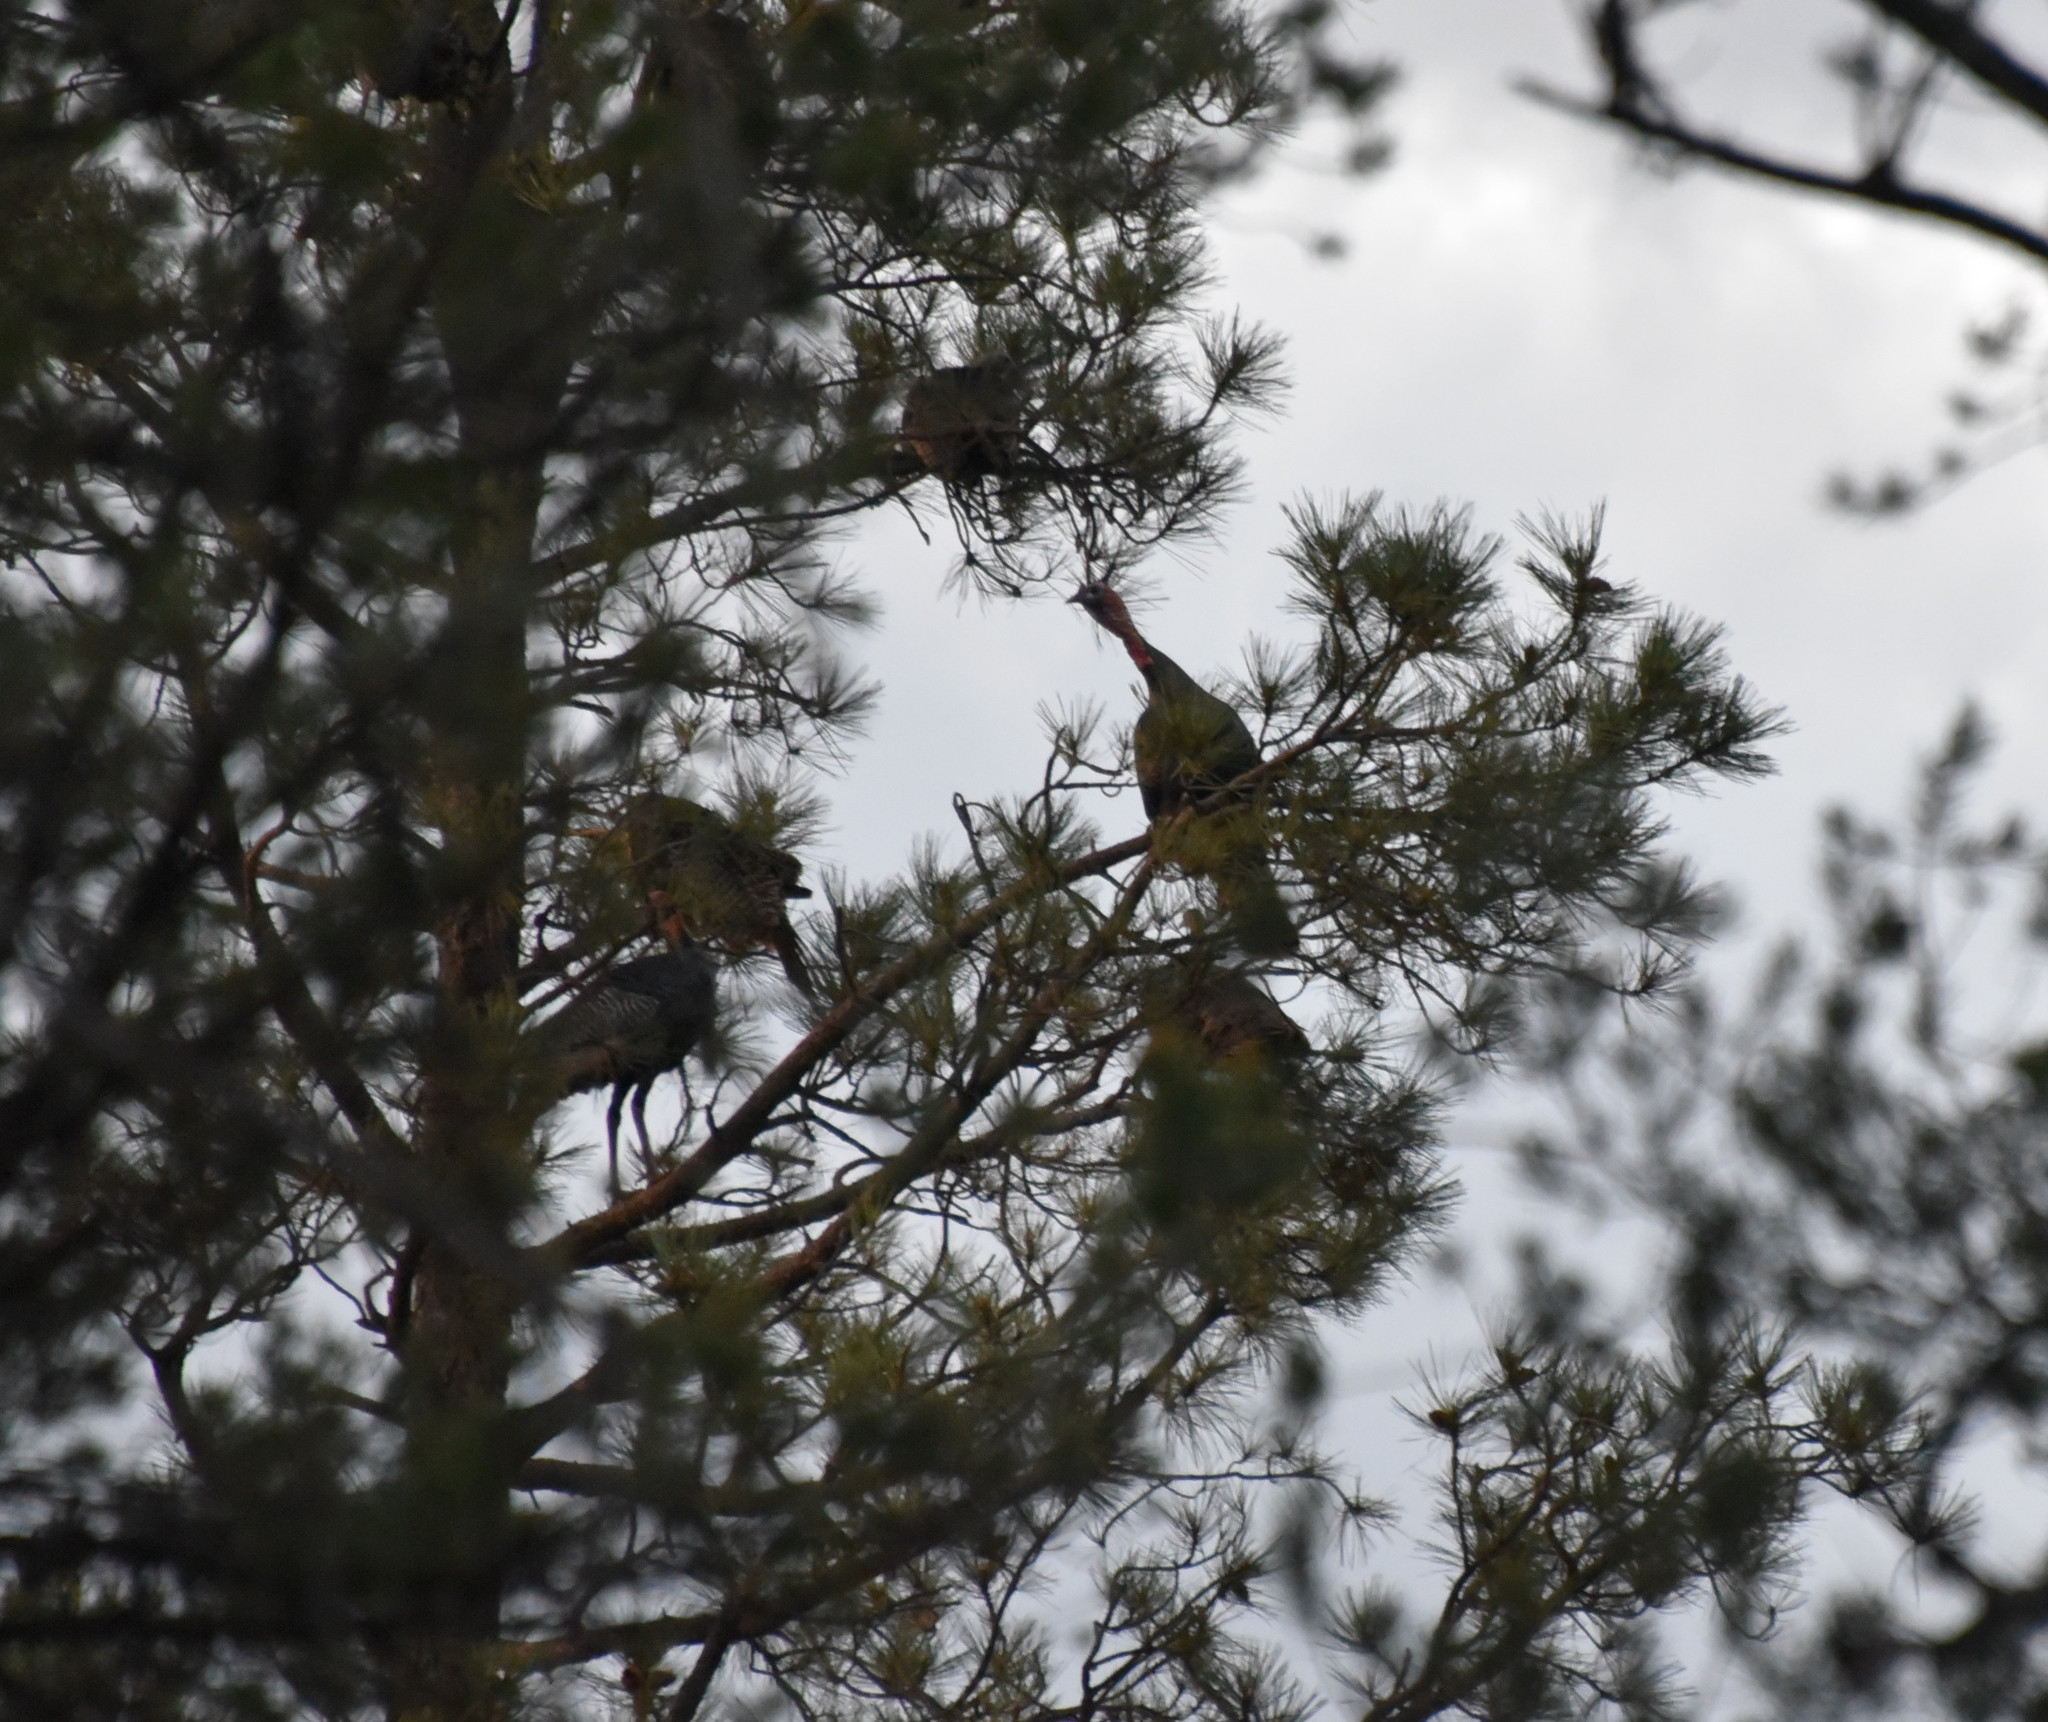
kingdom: Animalia
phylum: Chordata
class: Aves
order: Galliformes
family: Phasianidae
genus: Meleagris
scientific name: Meleagris gallopavo
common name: Wild turkey
